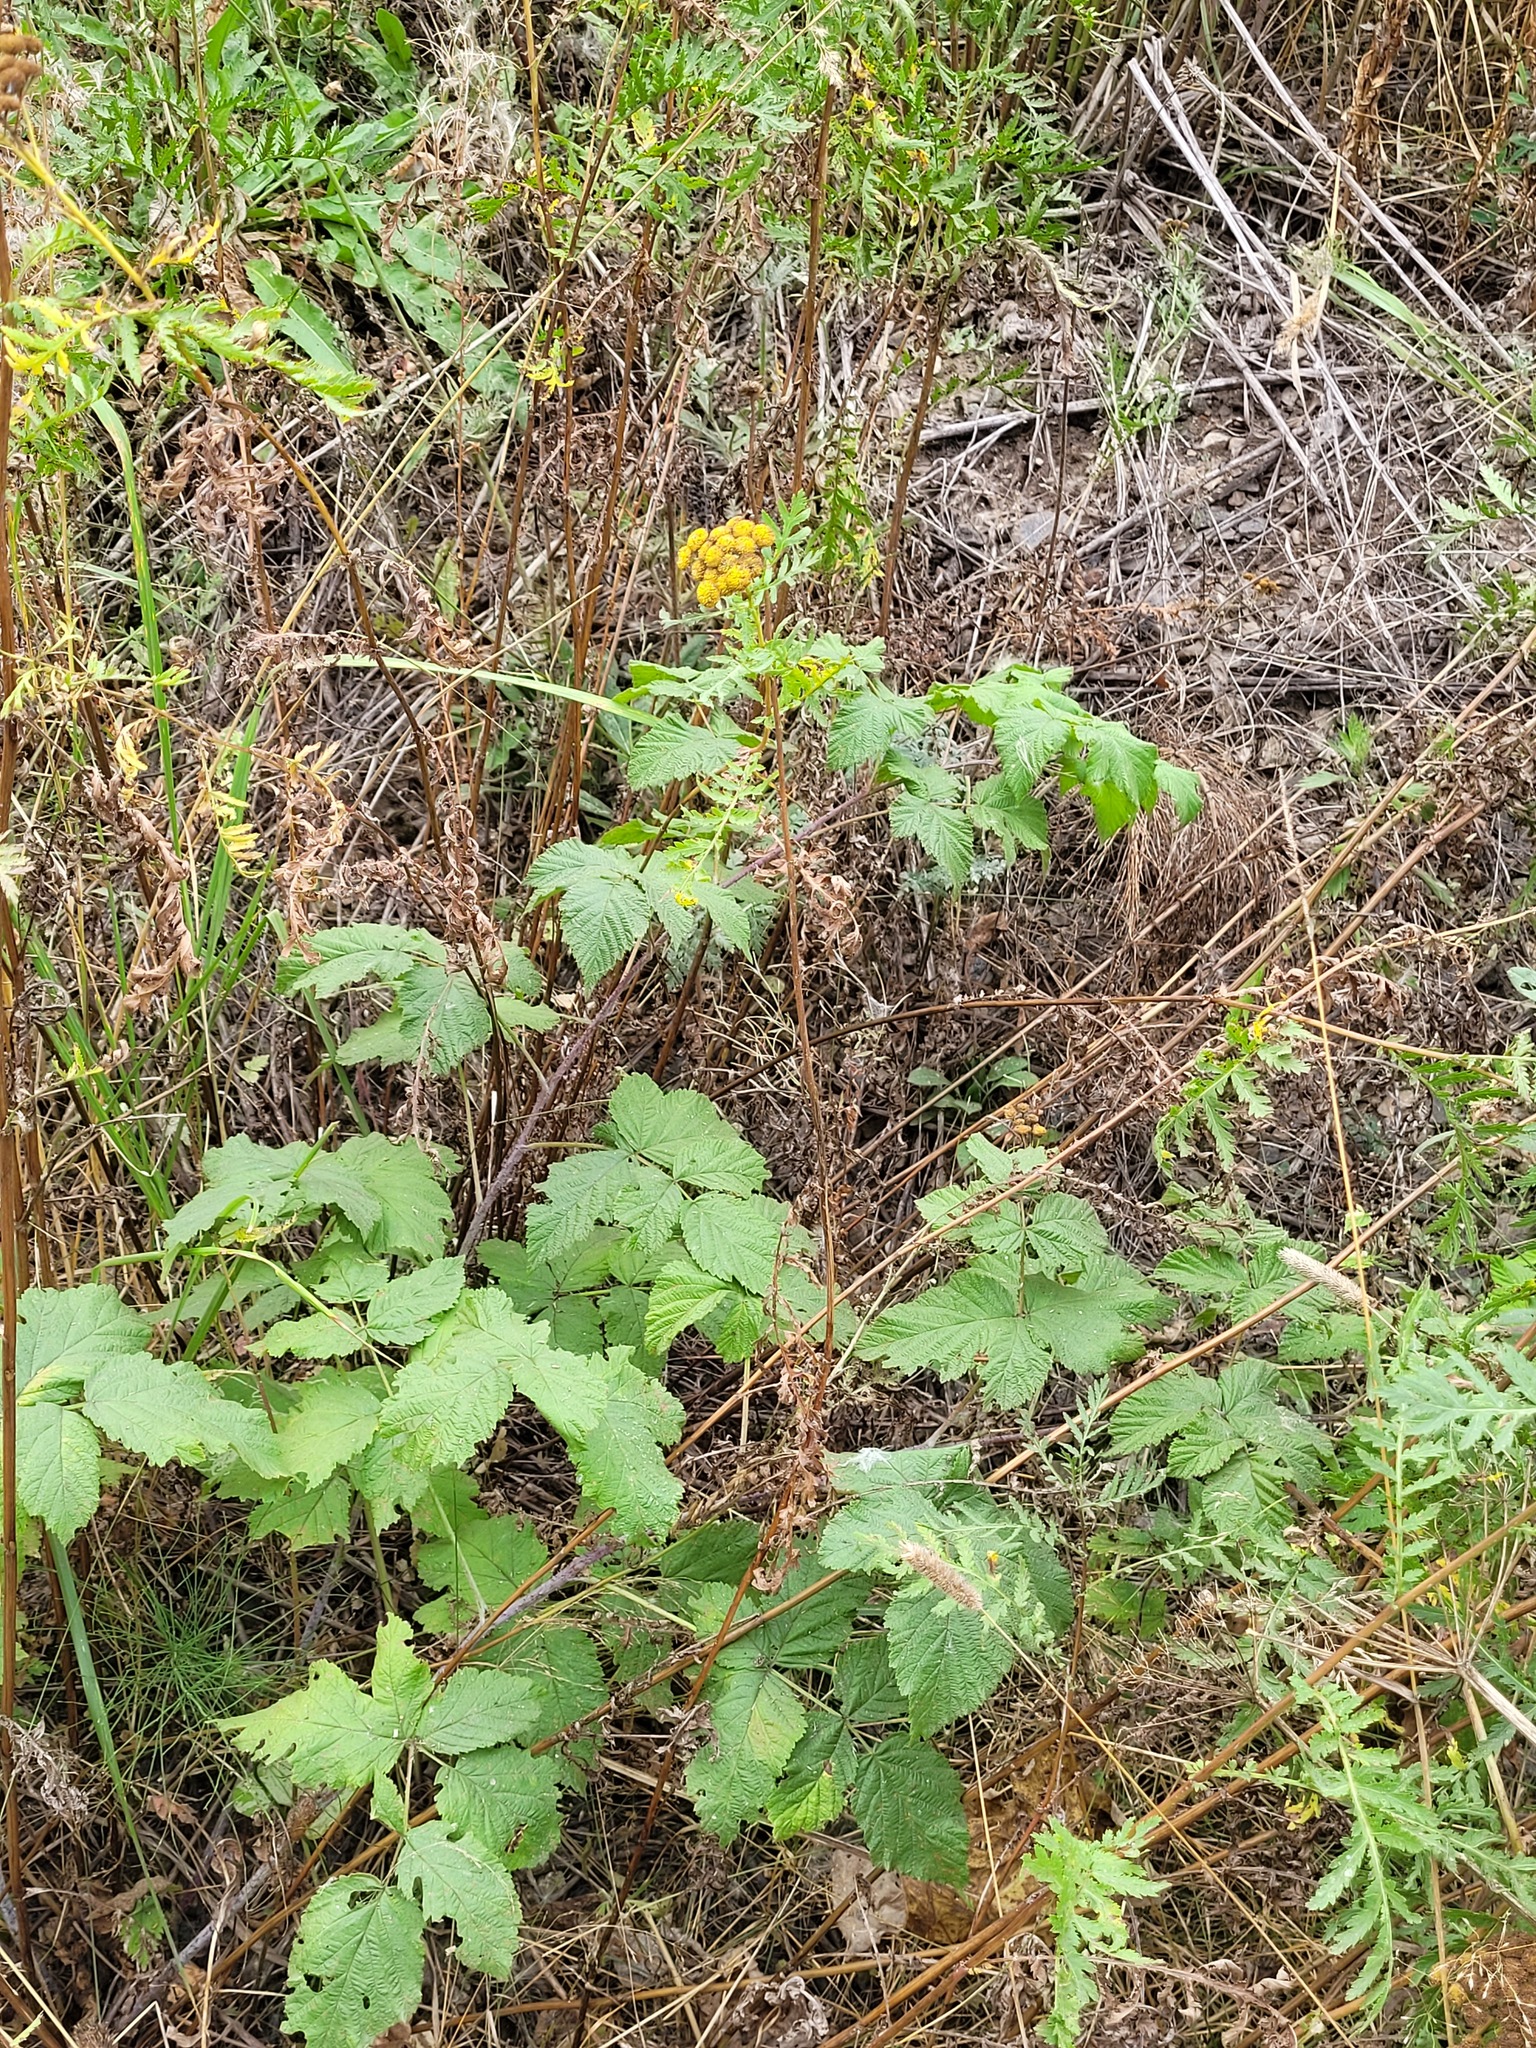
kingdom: Plantae
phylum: Tracheophyta
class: Magnoliopsida
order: Lamiales
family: Lamiaceae
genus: Leonurus
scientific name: Leonurus quinquelobatus
